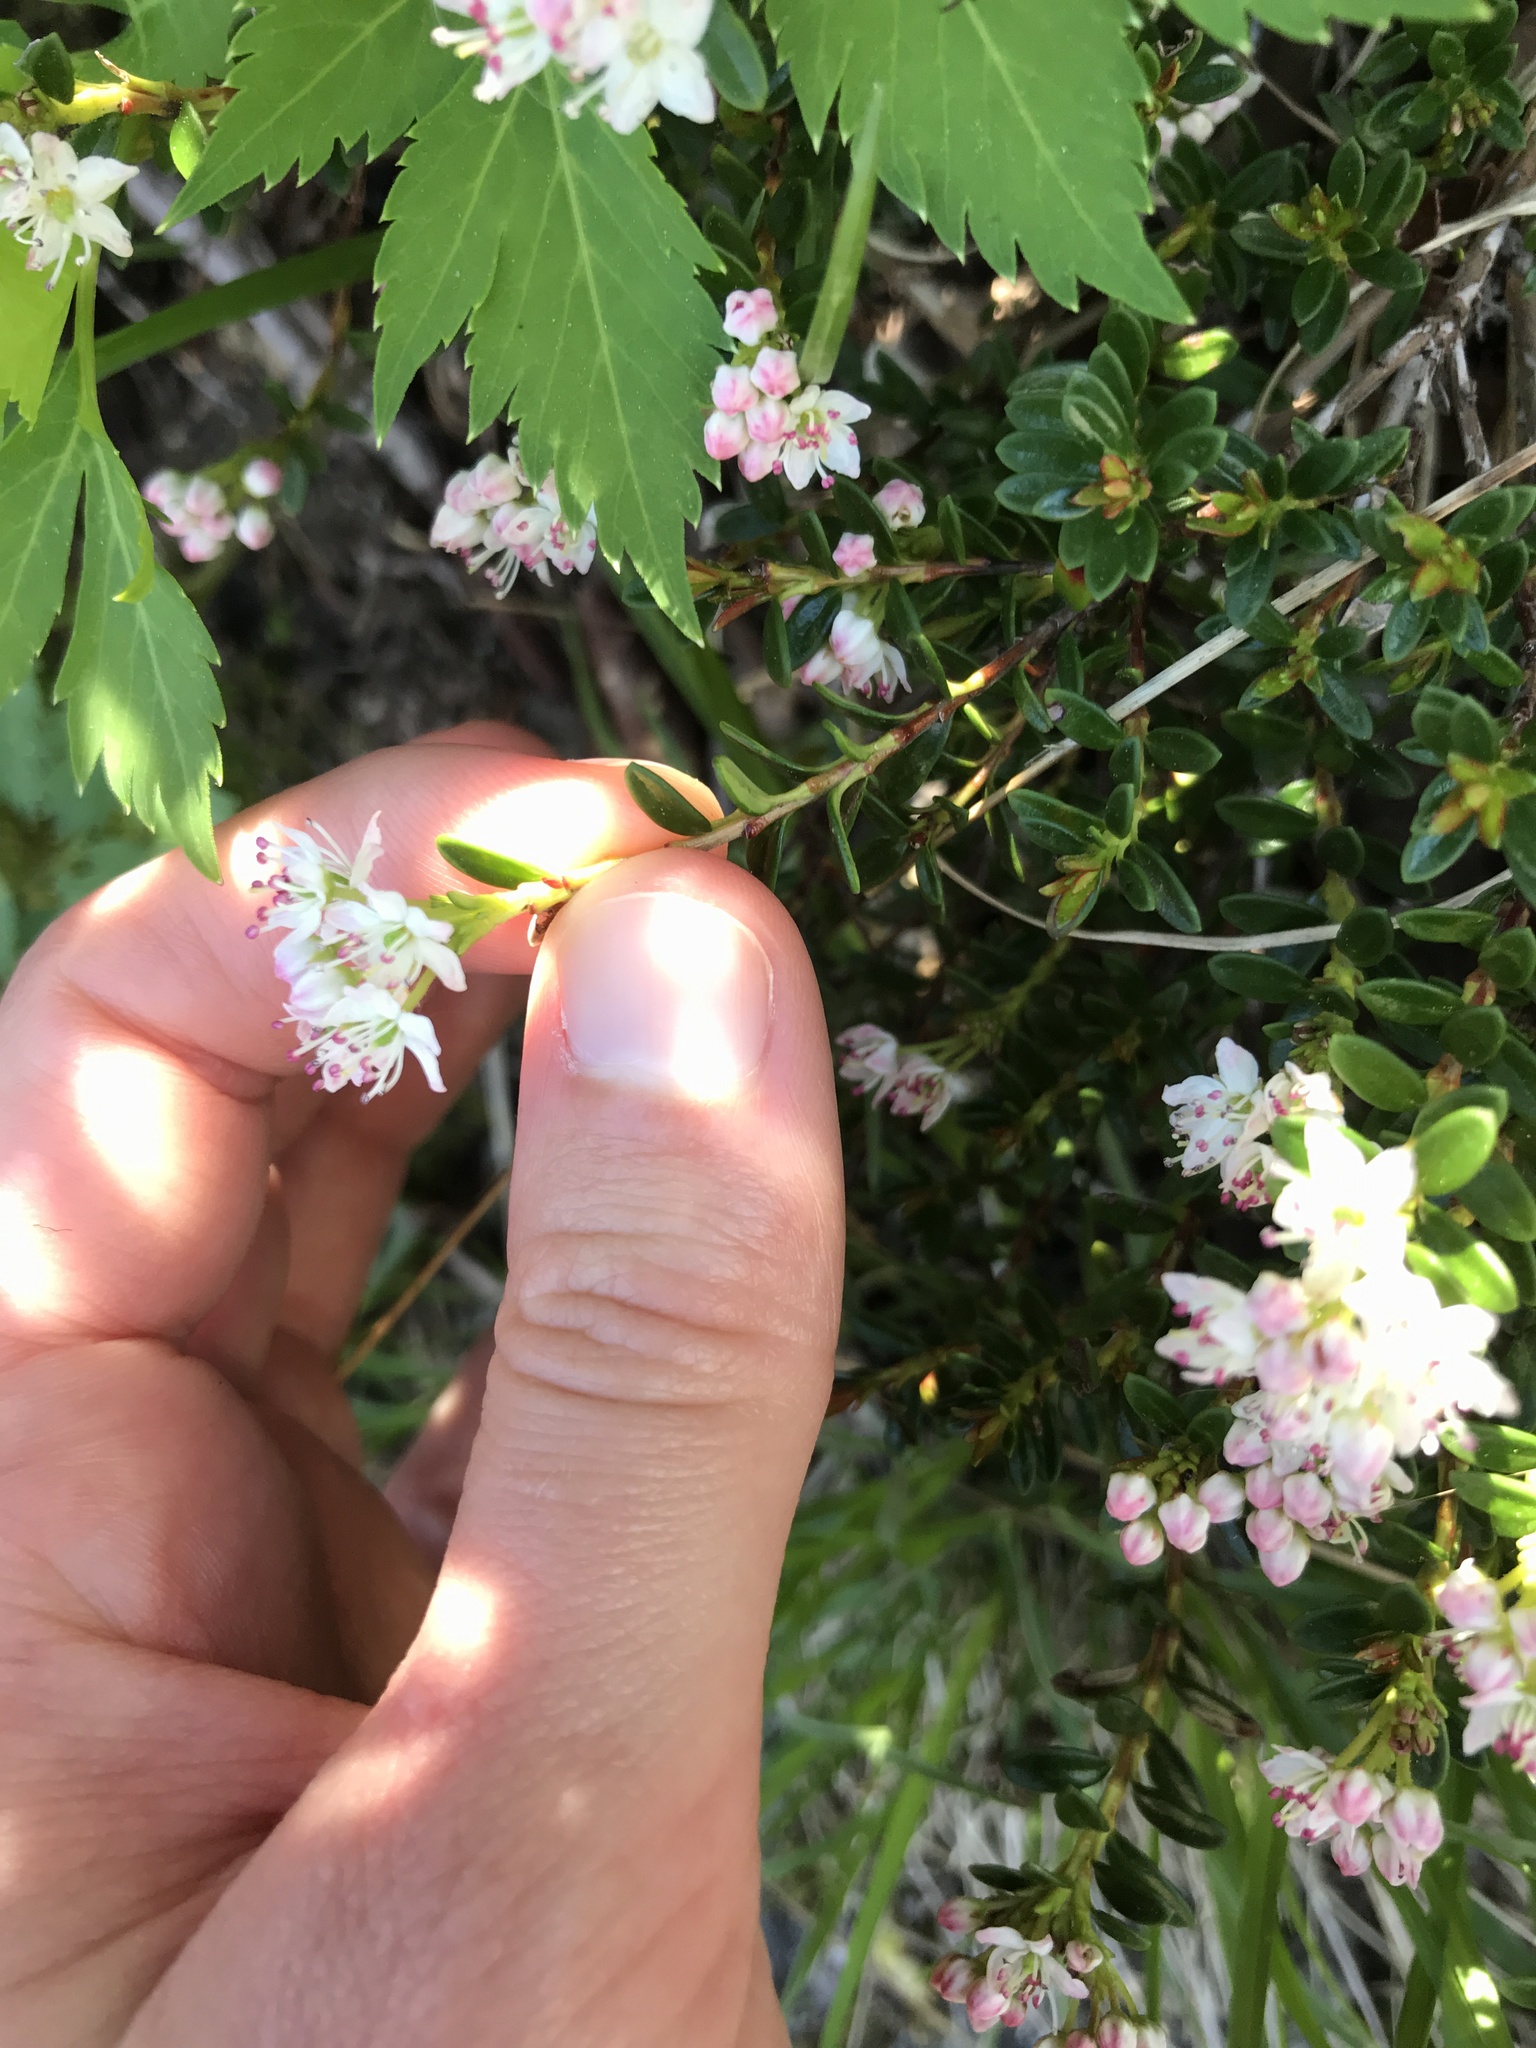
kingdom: Plantae
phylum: Tracheophyta
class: Magnoliopsida
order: Ericales
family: Ericaceae
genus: Kalmia
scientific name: Kalmia buxifolia
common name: Sandmyrtle
